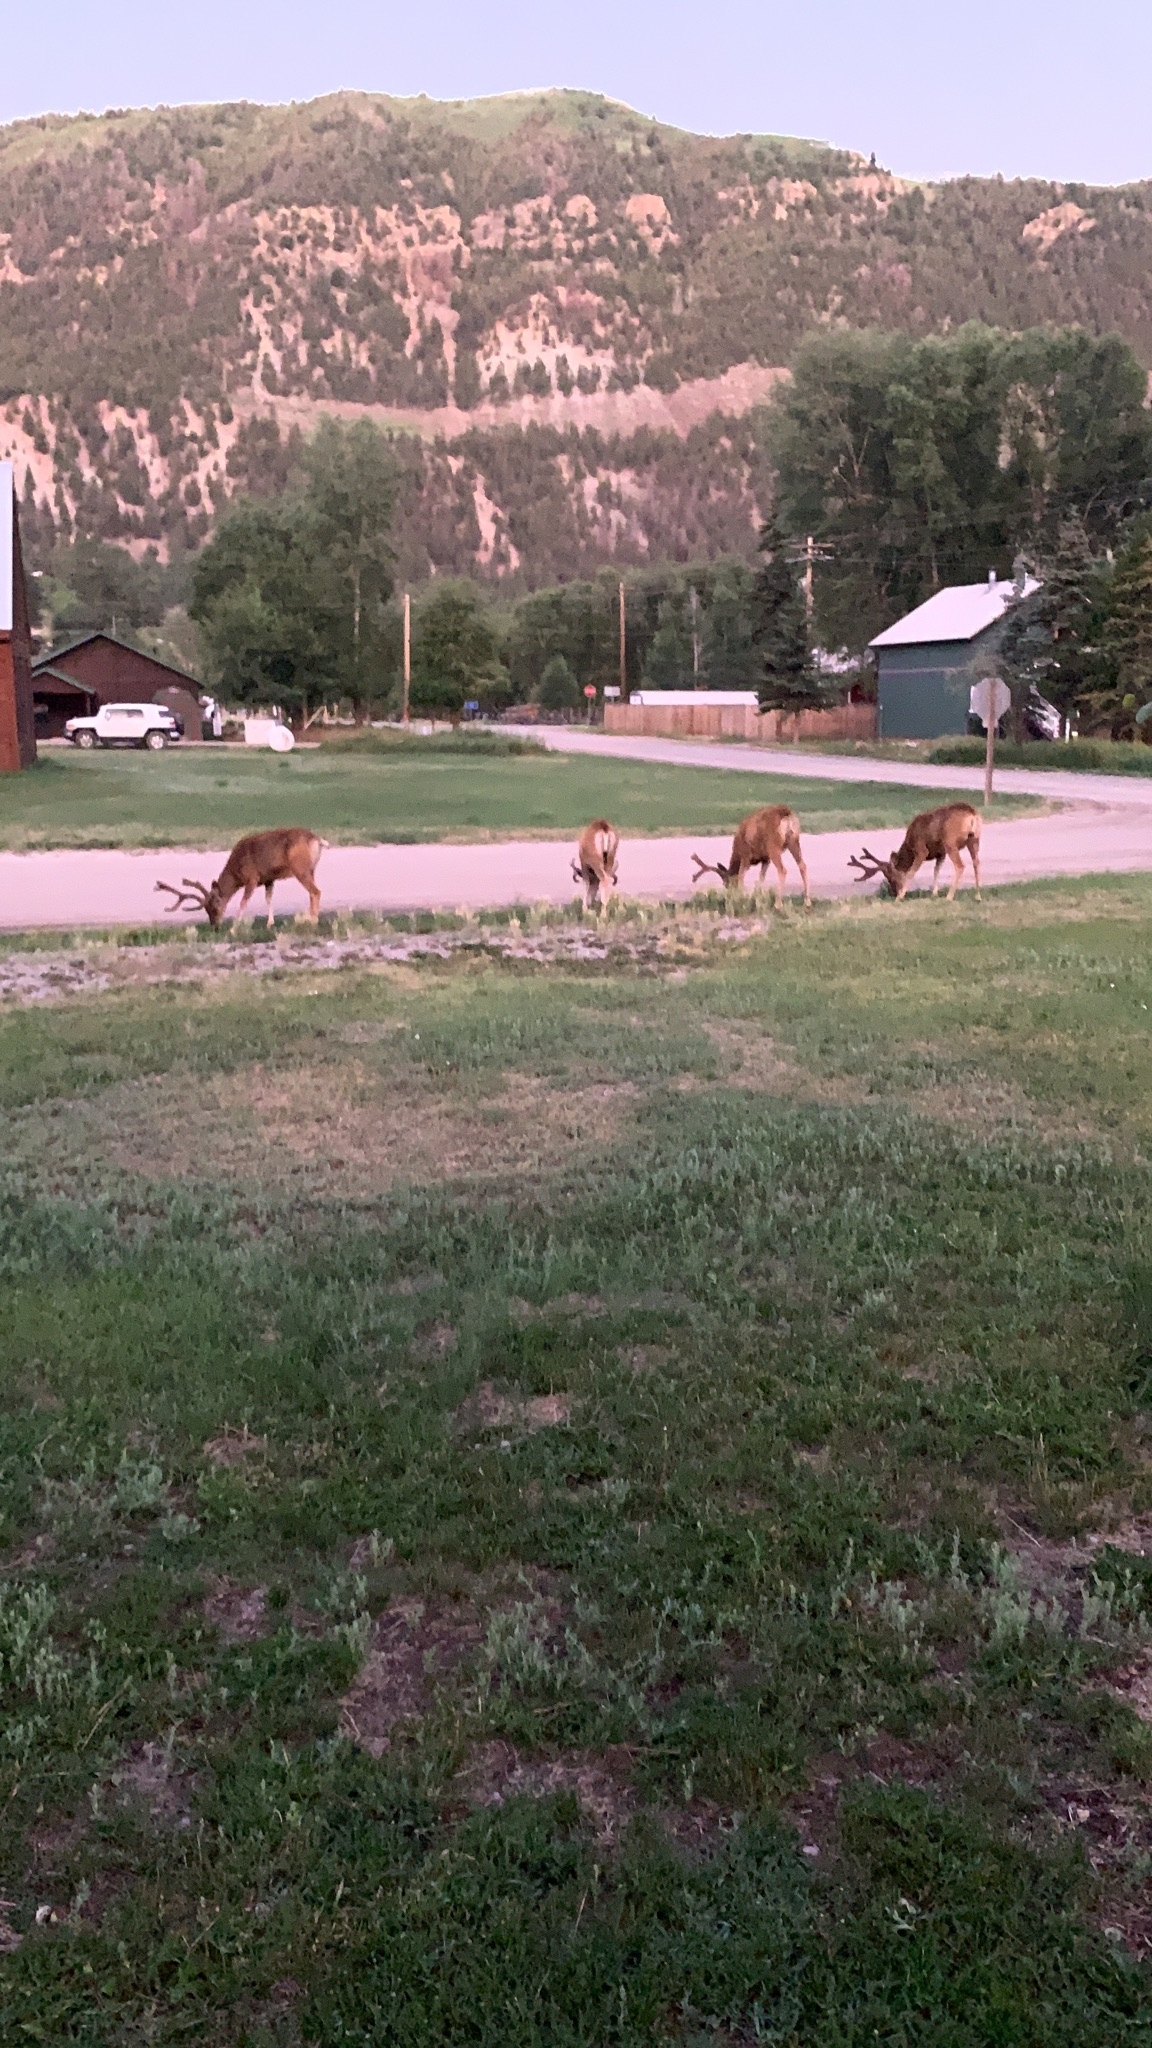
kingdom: Animalia
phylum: Chordata
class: Mammalia
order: Artiodactyla
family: Cervidae
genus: Odocoileus
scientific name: Odocoileus hemionus
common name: Mule deer
